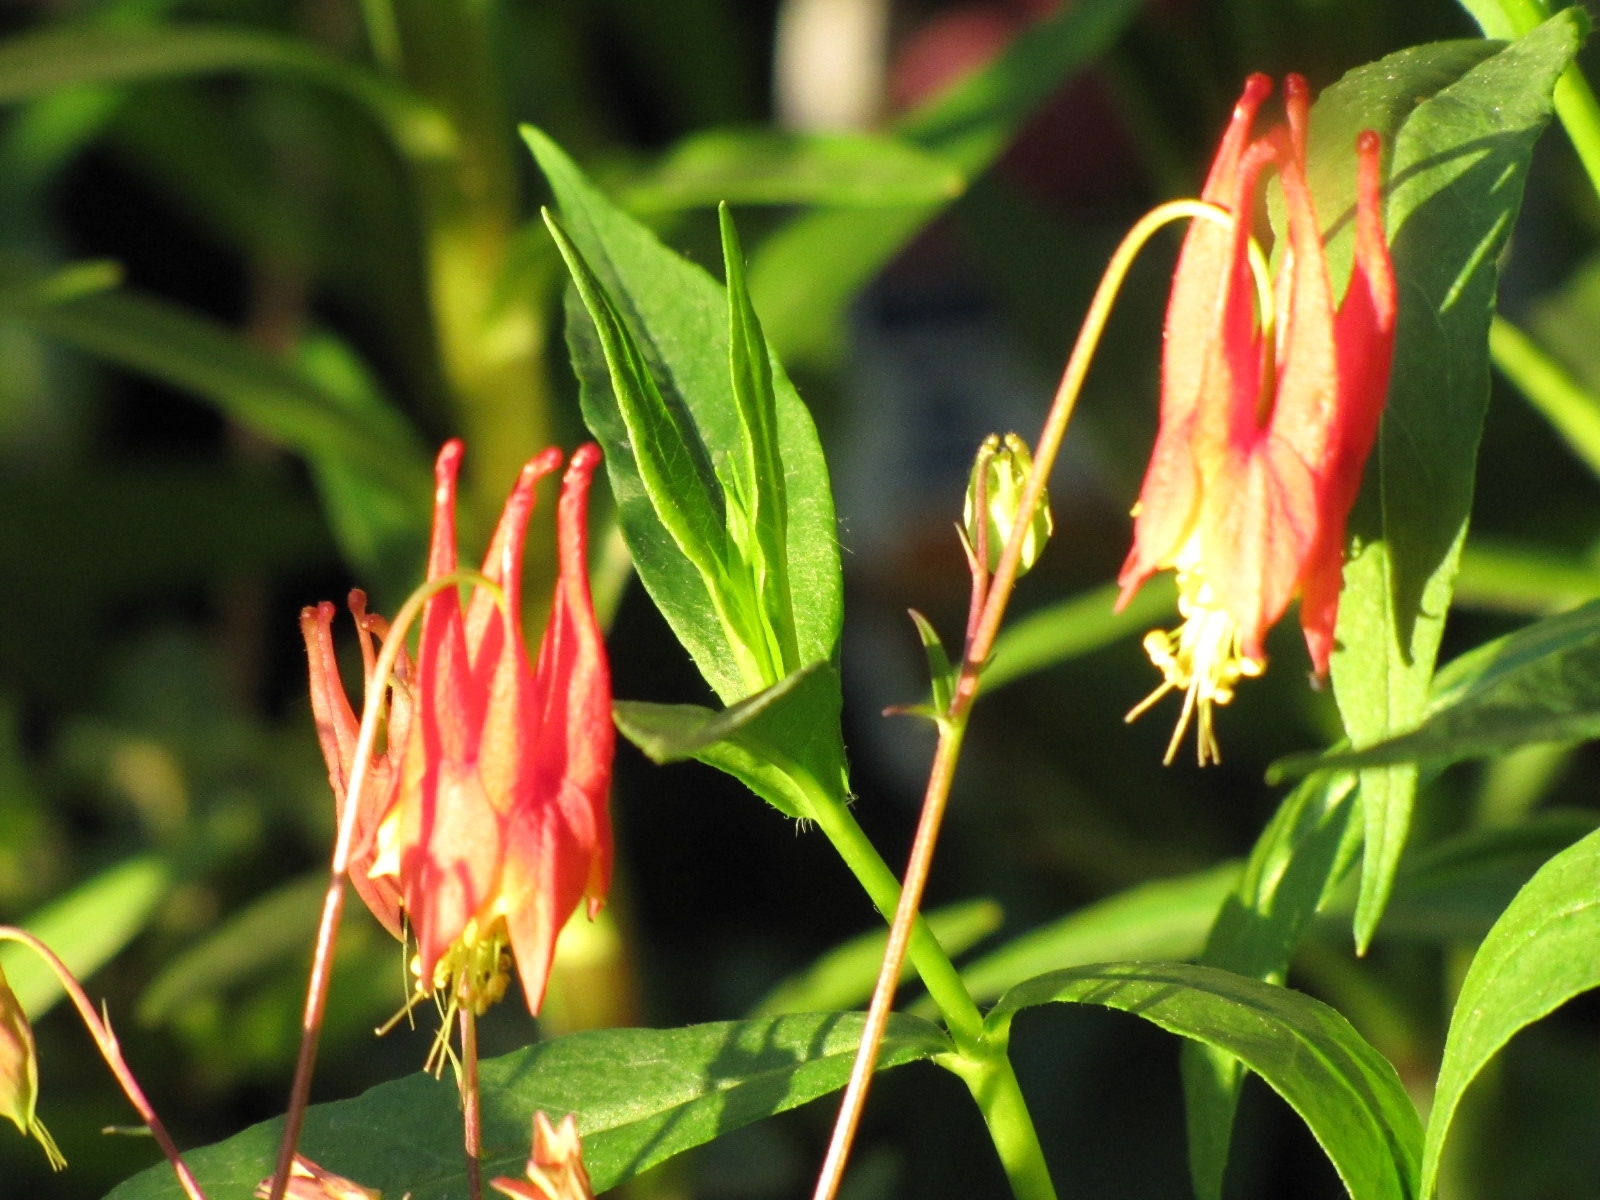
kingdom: Plantae
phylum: Tracheophyta
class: Magnoliopsida
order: Ranunculales
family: Ranunculaceae
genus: Aquilegia
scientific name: Aquilegia canadensis
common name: American columbine
